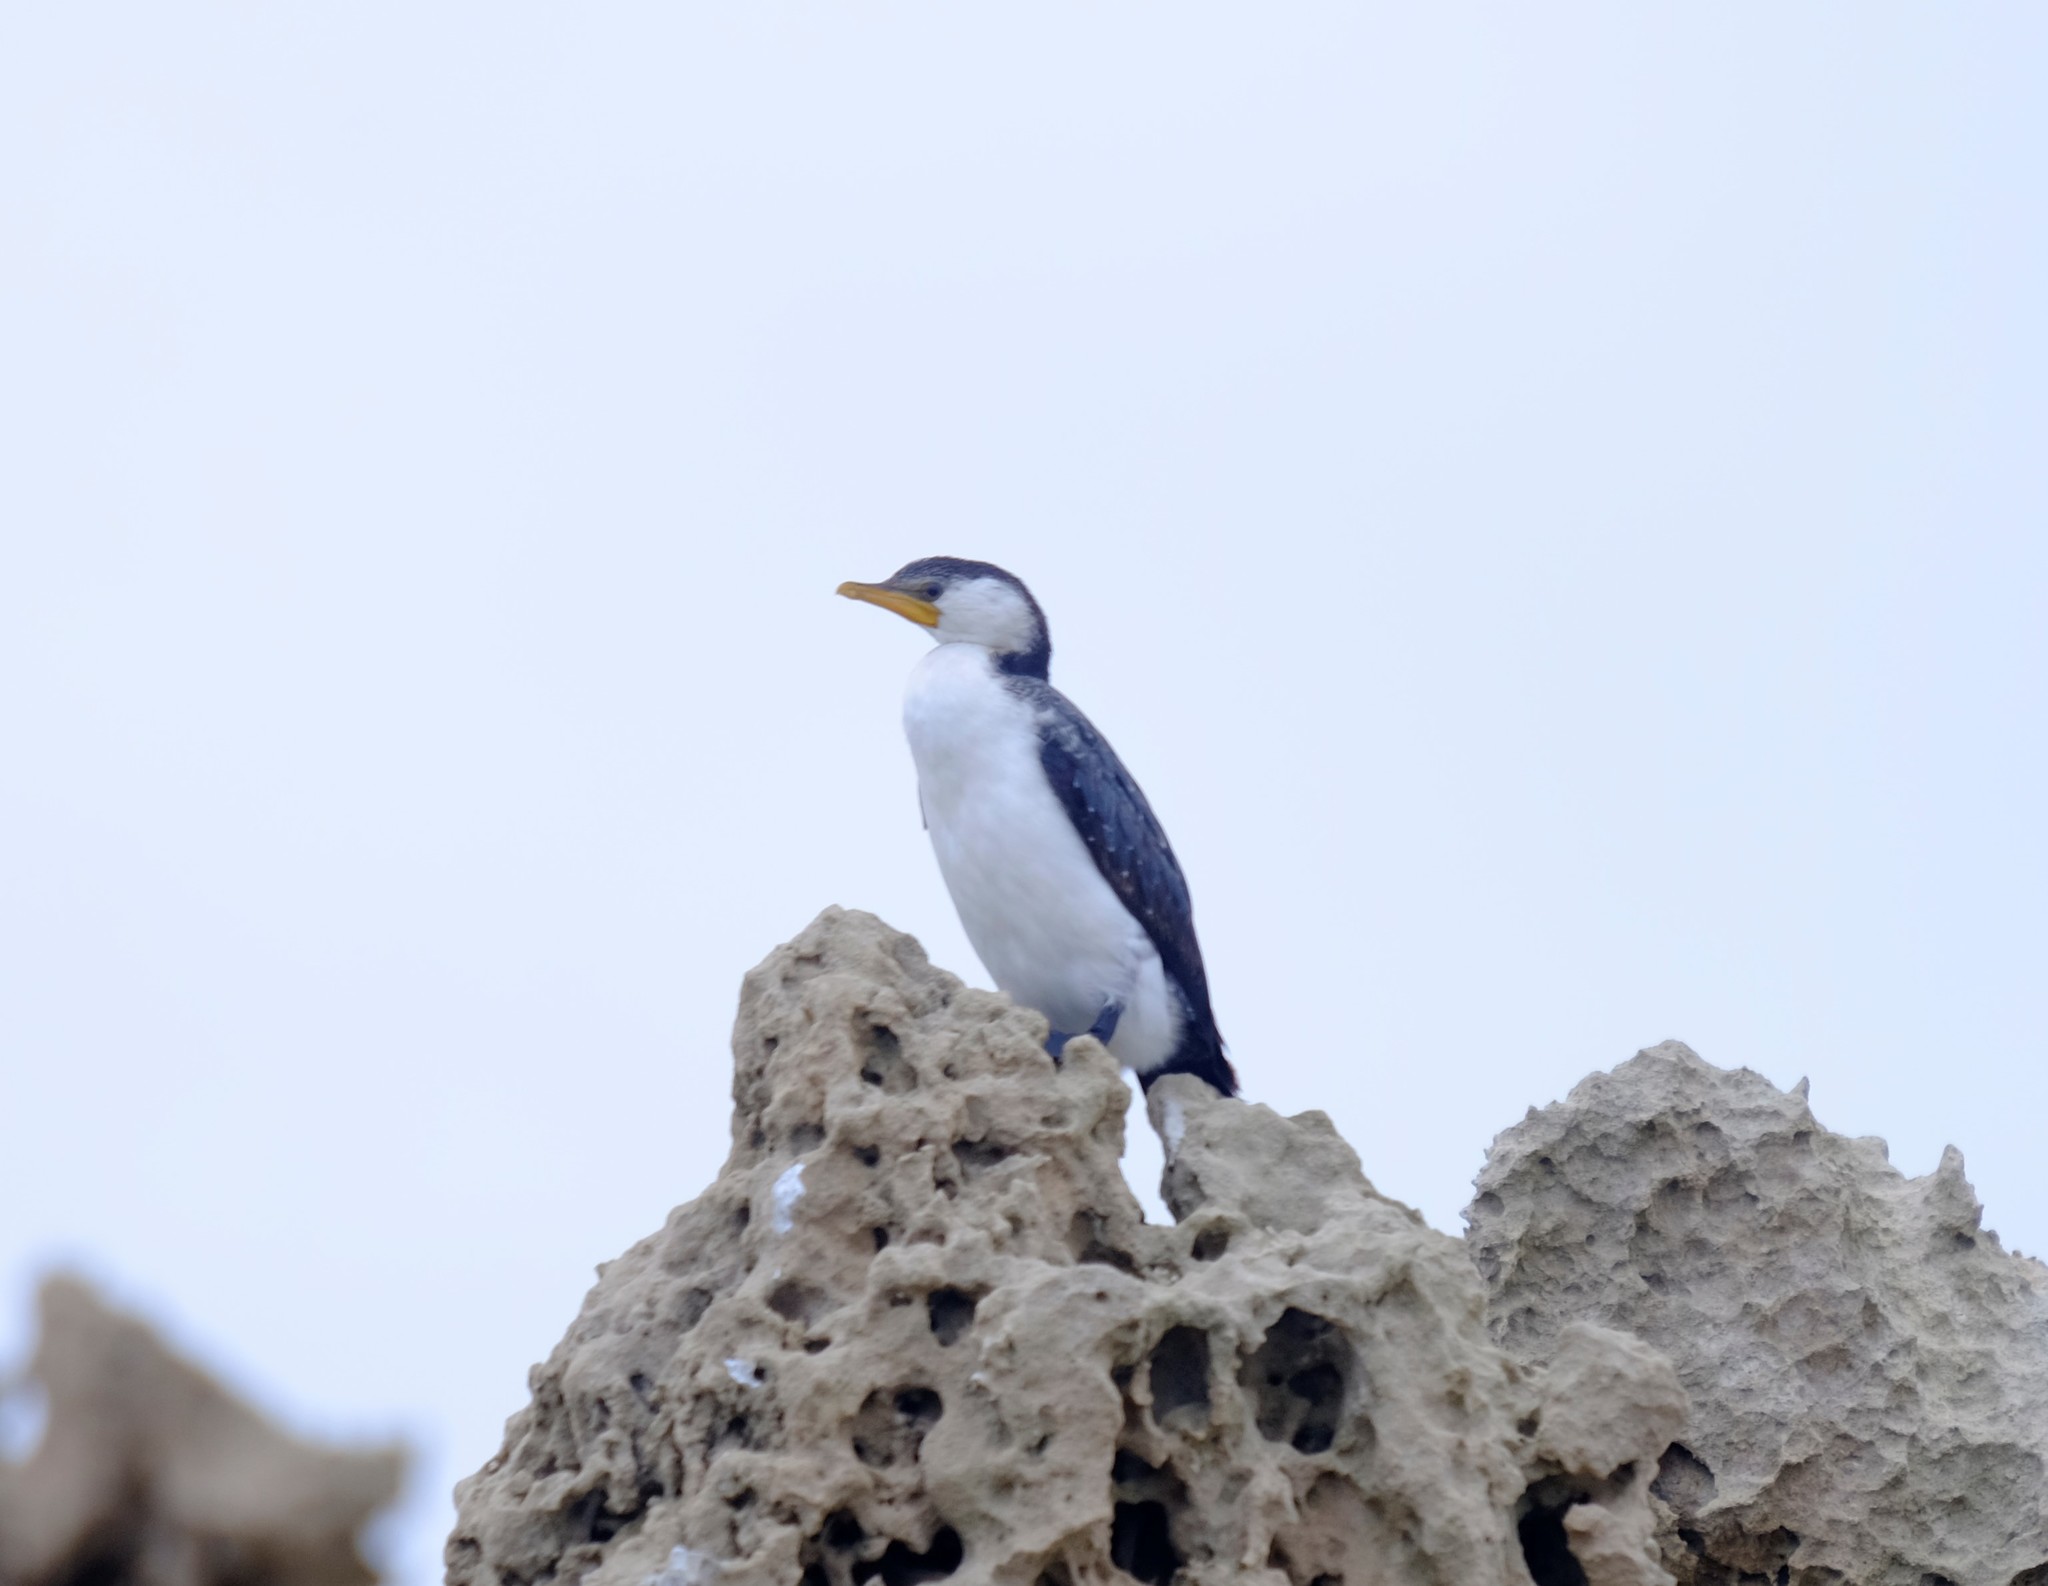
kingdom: Animalia
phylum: Chordata
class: Aves
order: Suliformes
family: Phalacrocoracidae
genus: Microcarbo
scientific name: Microcarbo melanoleucos
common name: Little pied cormorant
